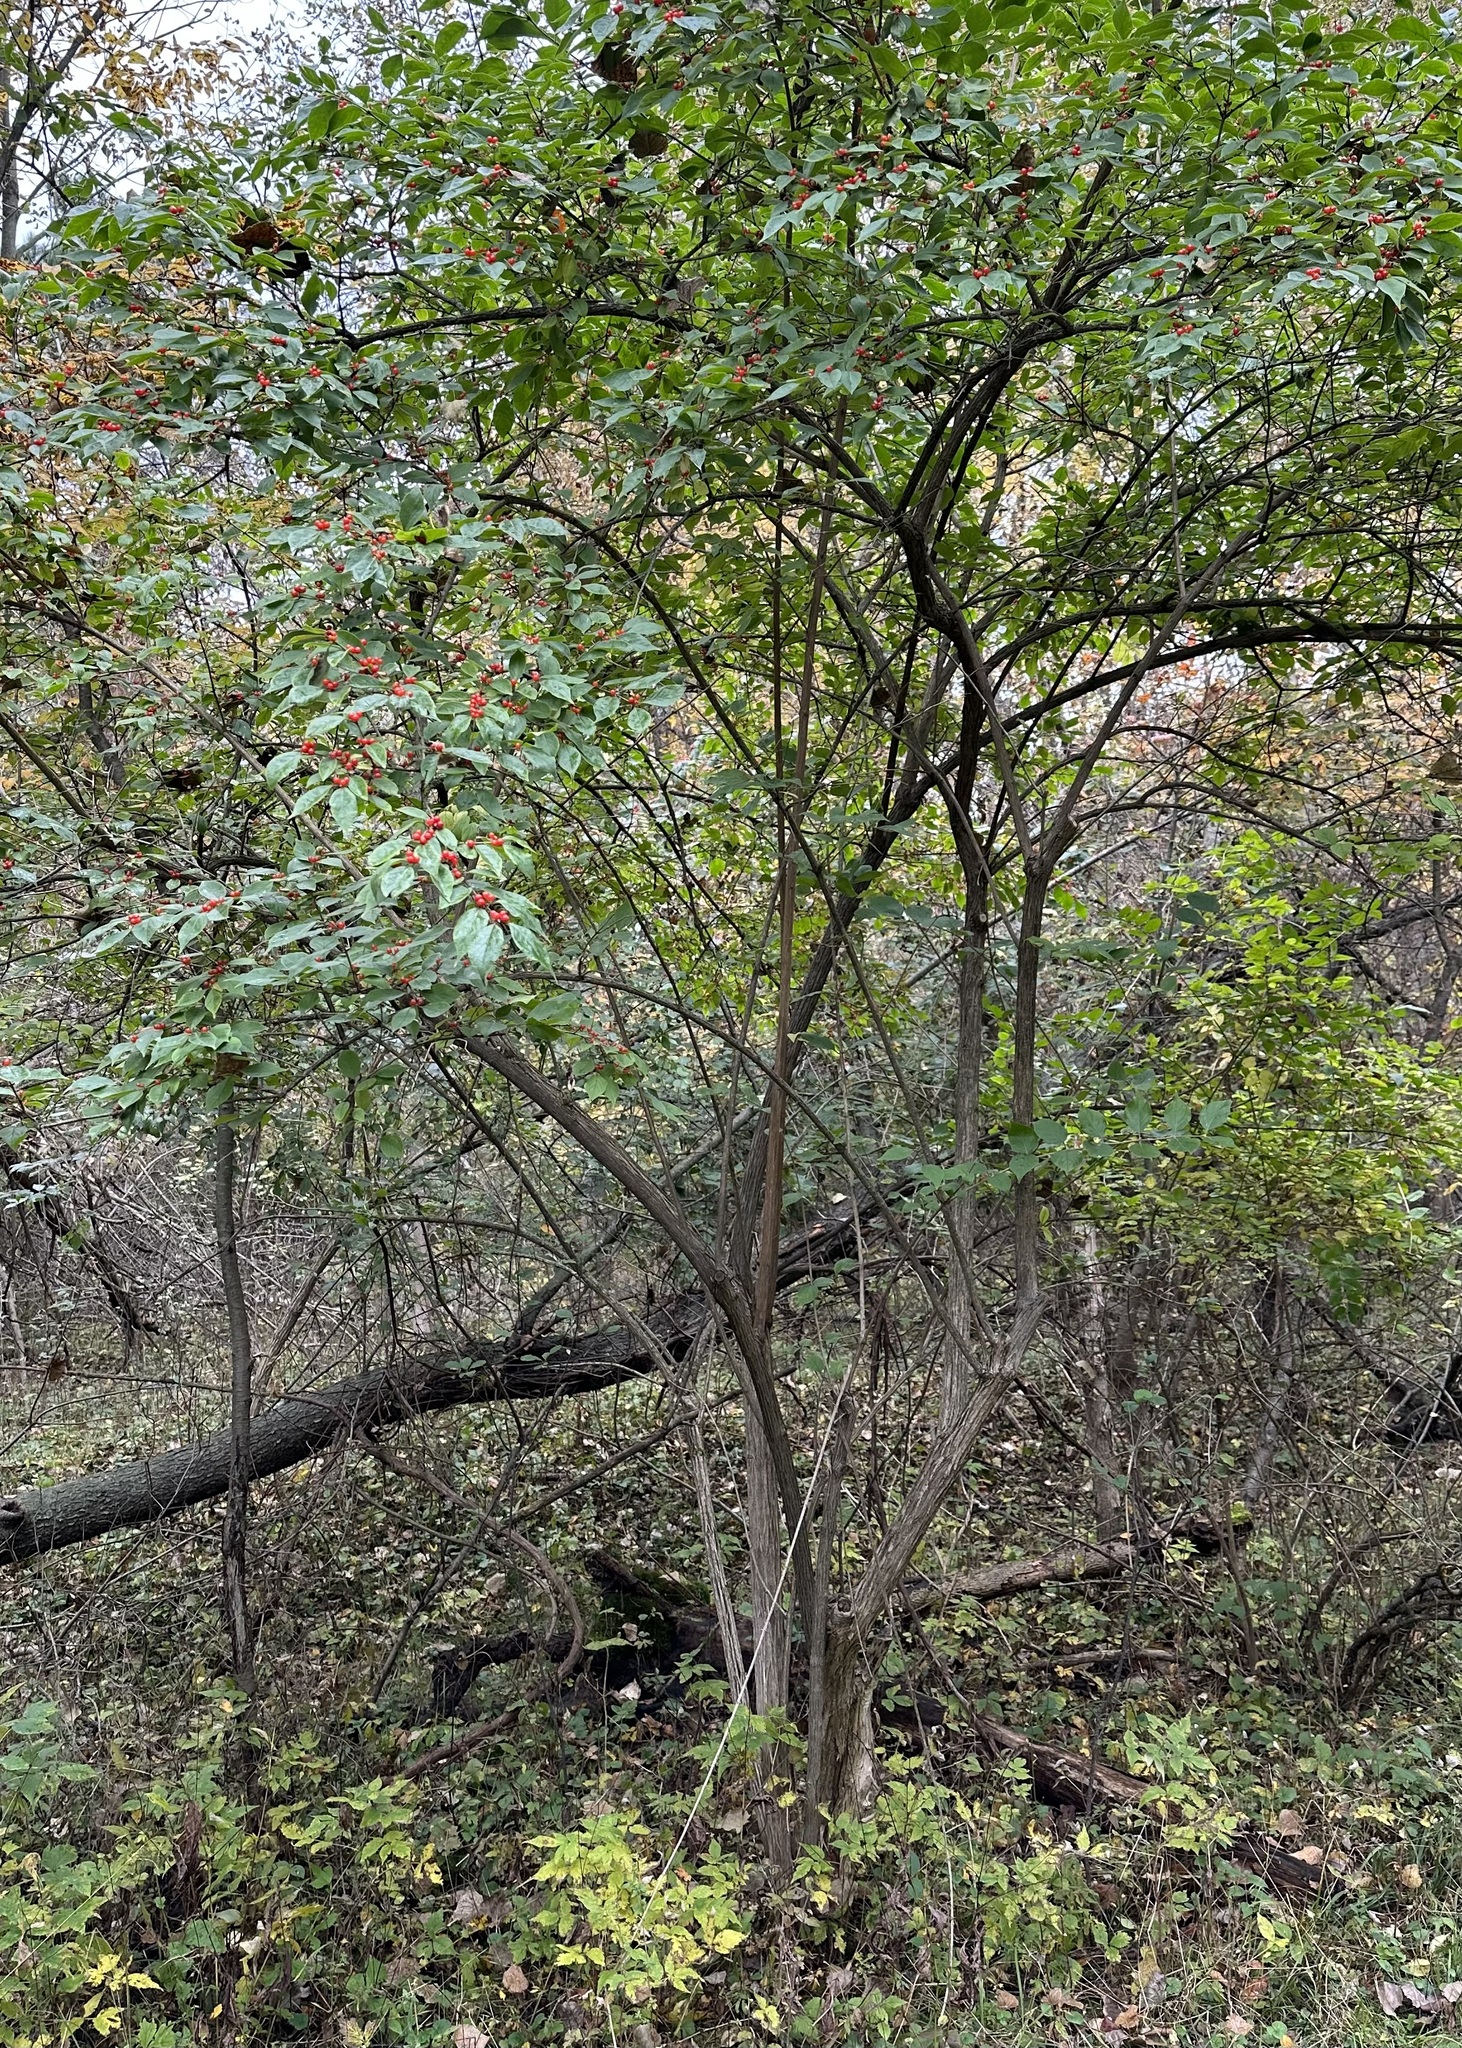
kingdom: Plantae
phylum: Tracheophyta
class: Magnoliopsida
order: Dipsacales
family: Caprifoliaceae
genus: Lonicera
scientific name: Lonicera maackii
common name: Amur honeysuckle
